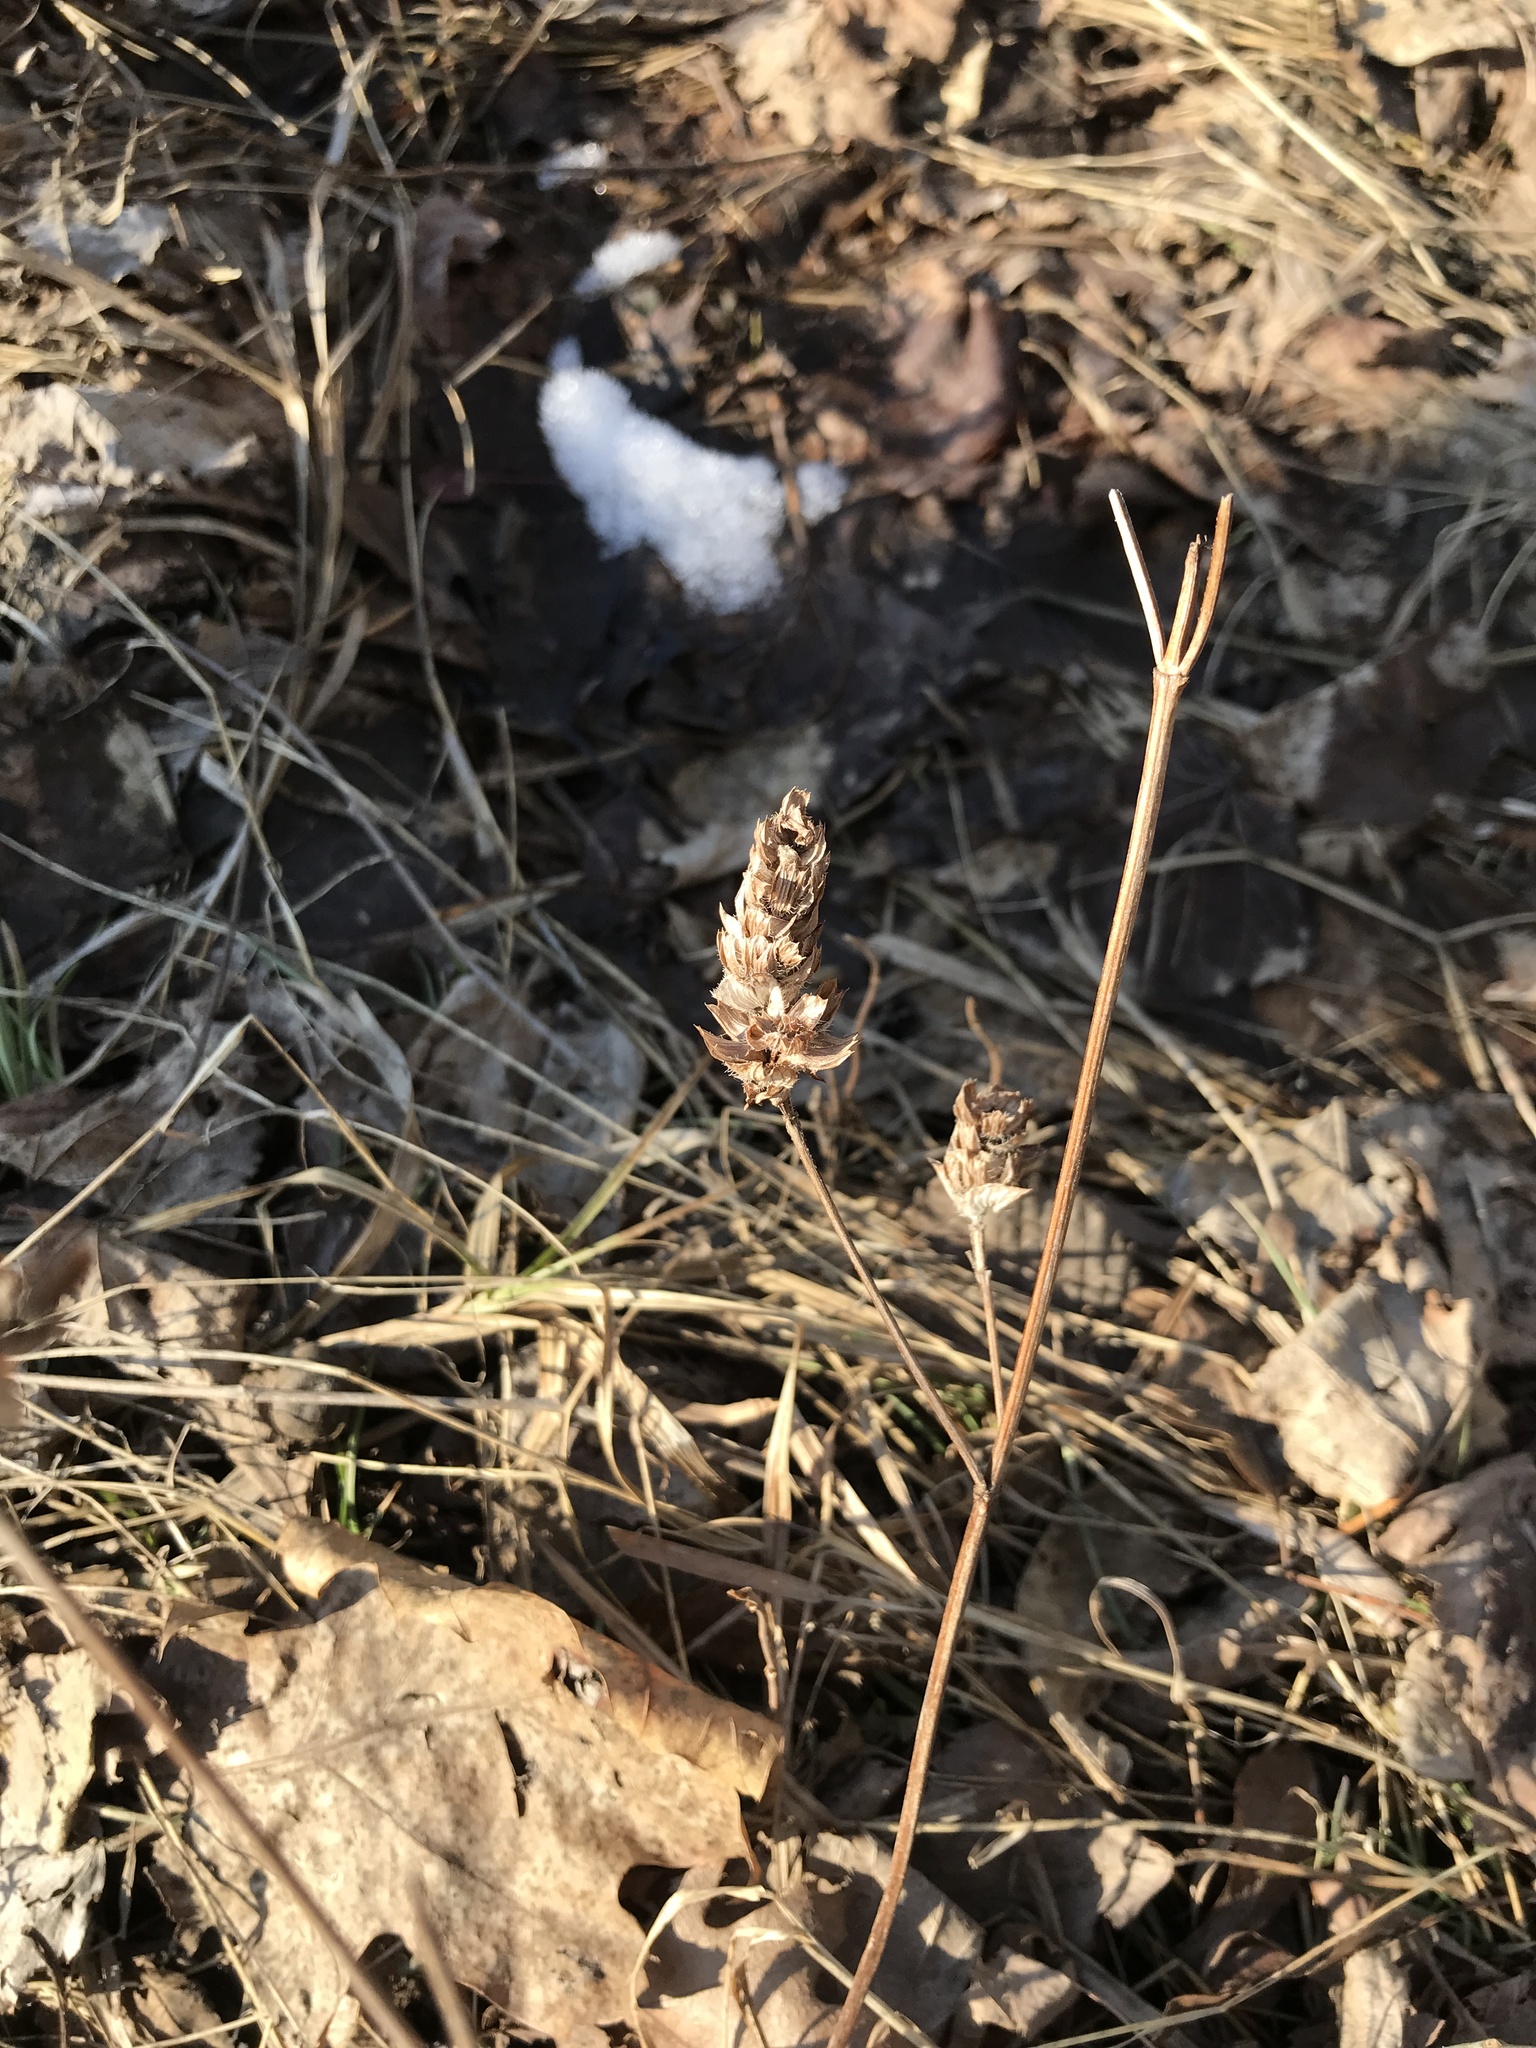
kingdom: Plantae
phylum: Tracheophyta
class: Magnoliopsida
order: Lamiales
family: Lamiaceae
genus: Prunella
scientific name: Prunella vulgaris
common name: Heal-all
